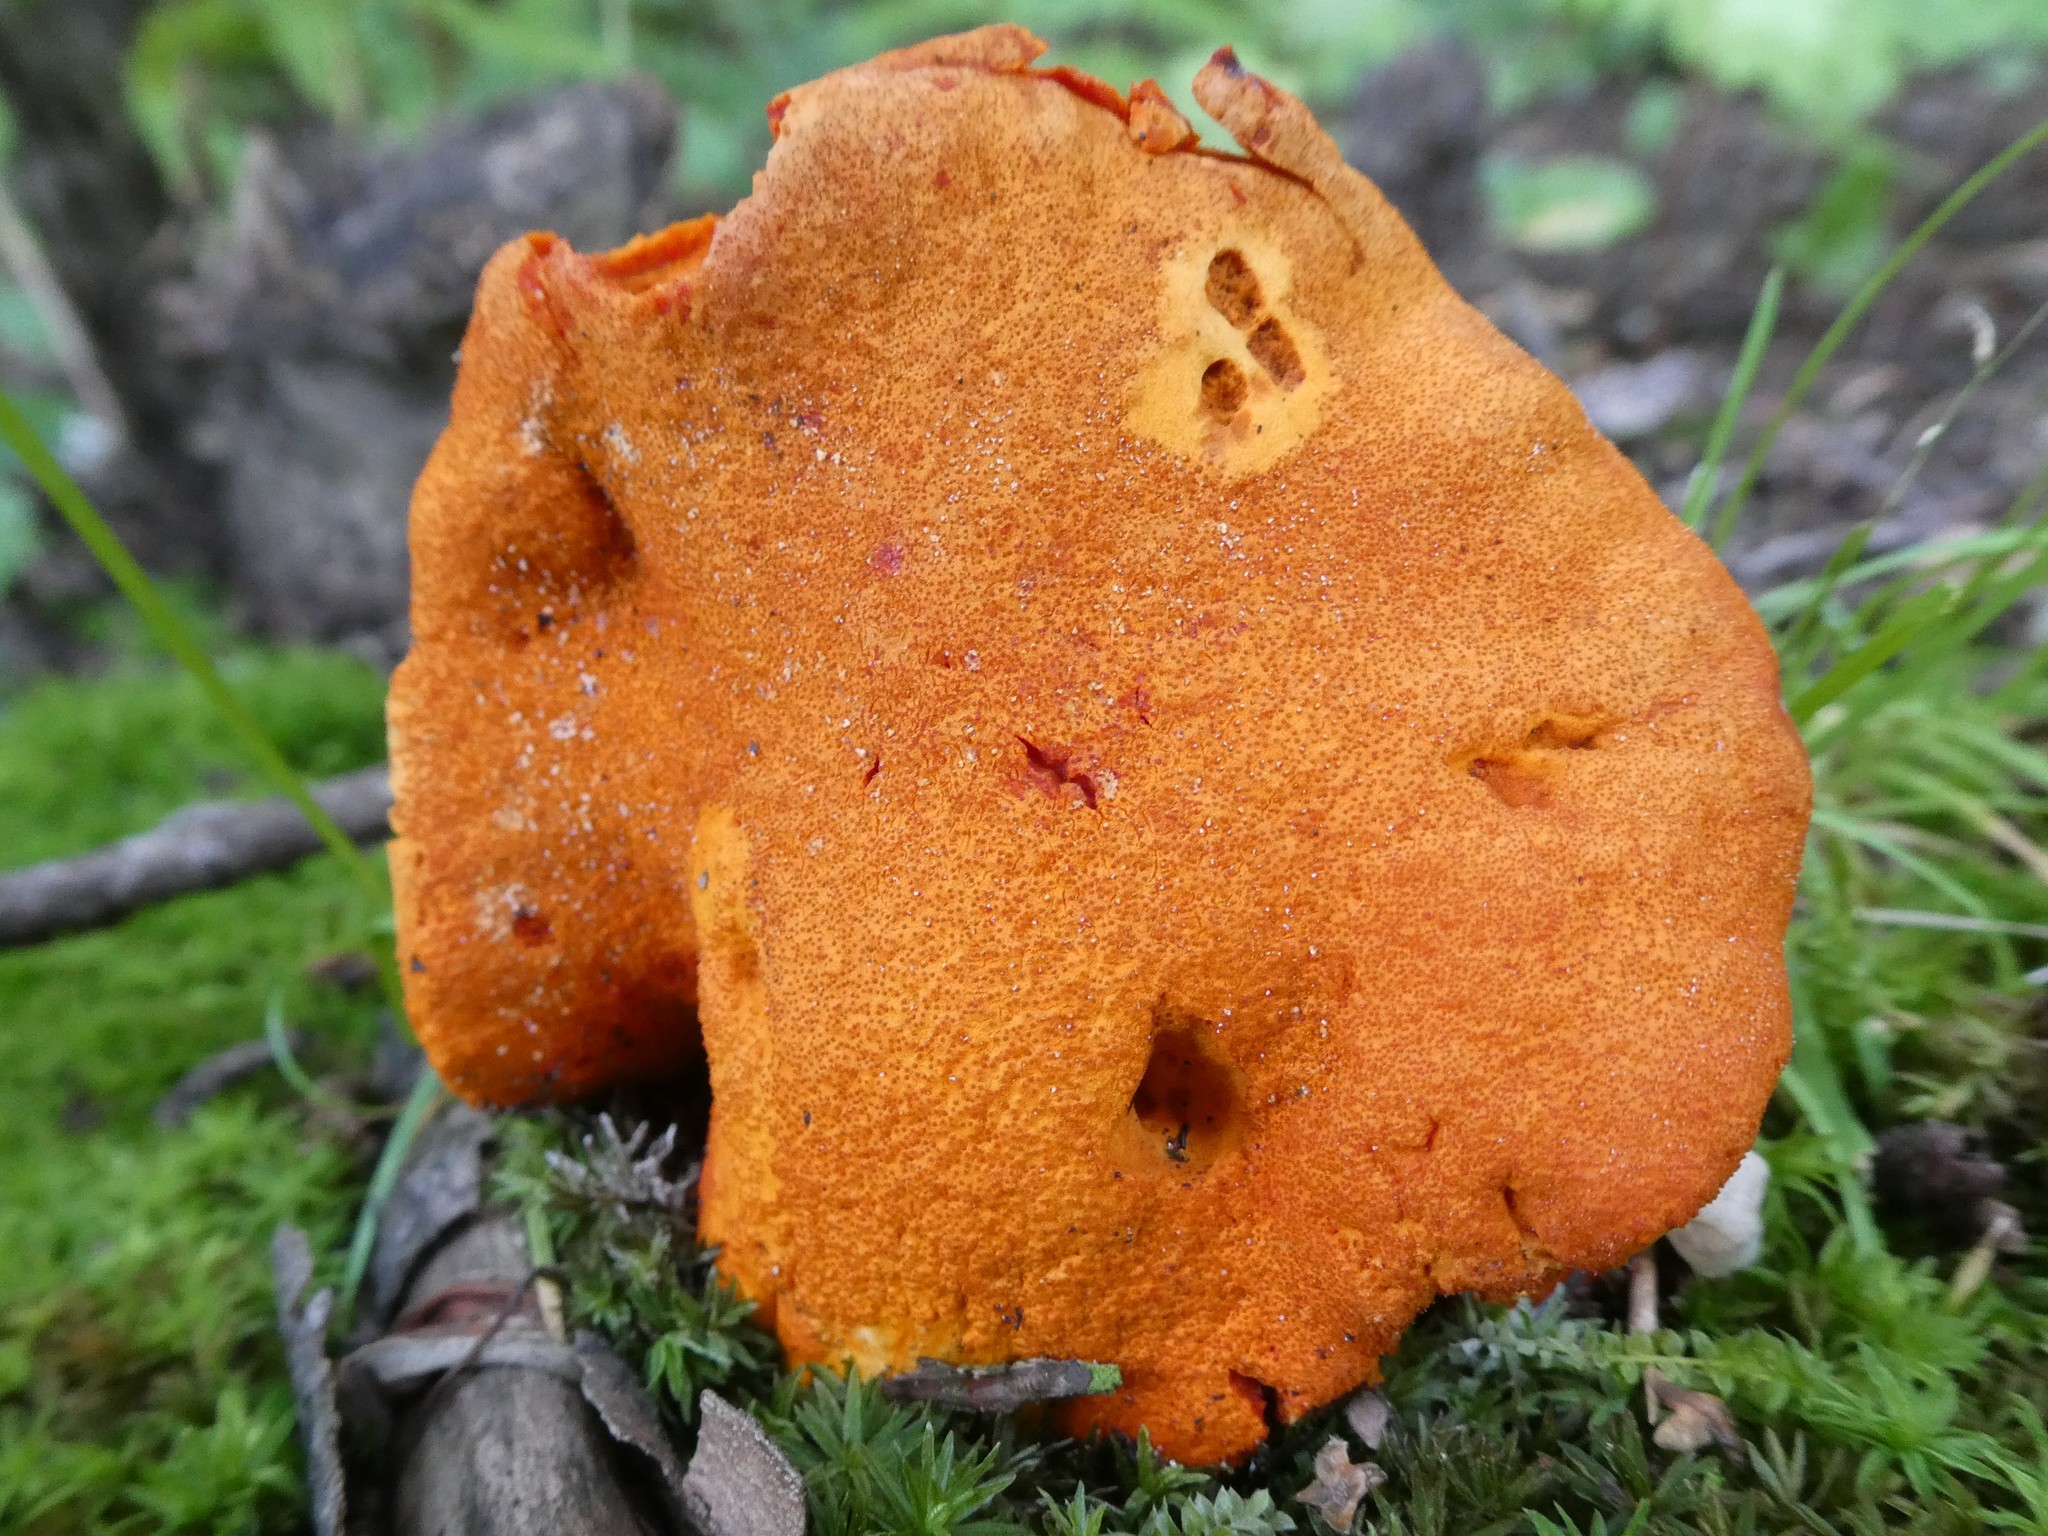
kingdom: Fungi
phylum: Ascomycota
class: Sordariomycetes
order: Hypocreales
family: Hypocreaceae
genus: Hypomyces
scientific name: Hypomyces lactifluorum
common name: Lobster mushroom
